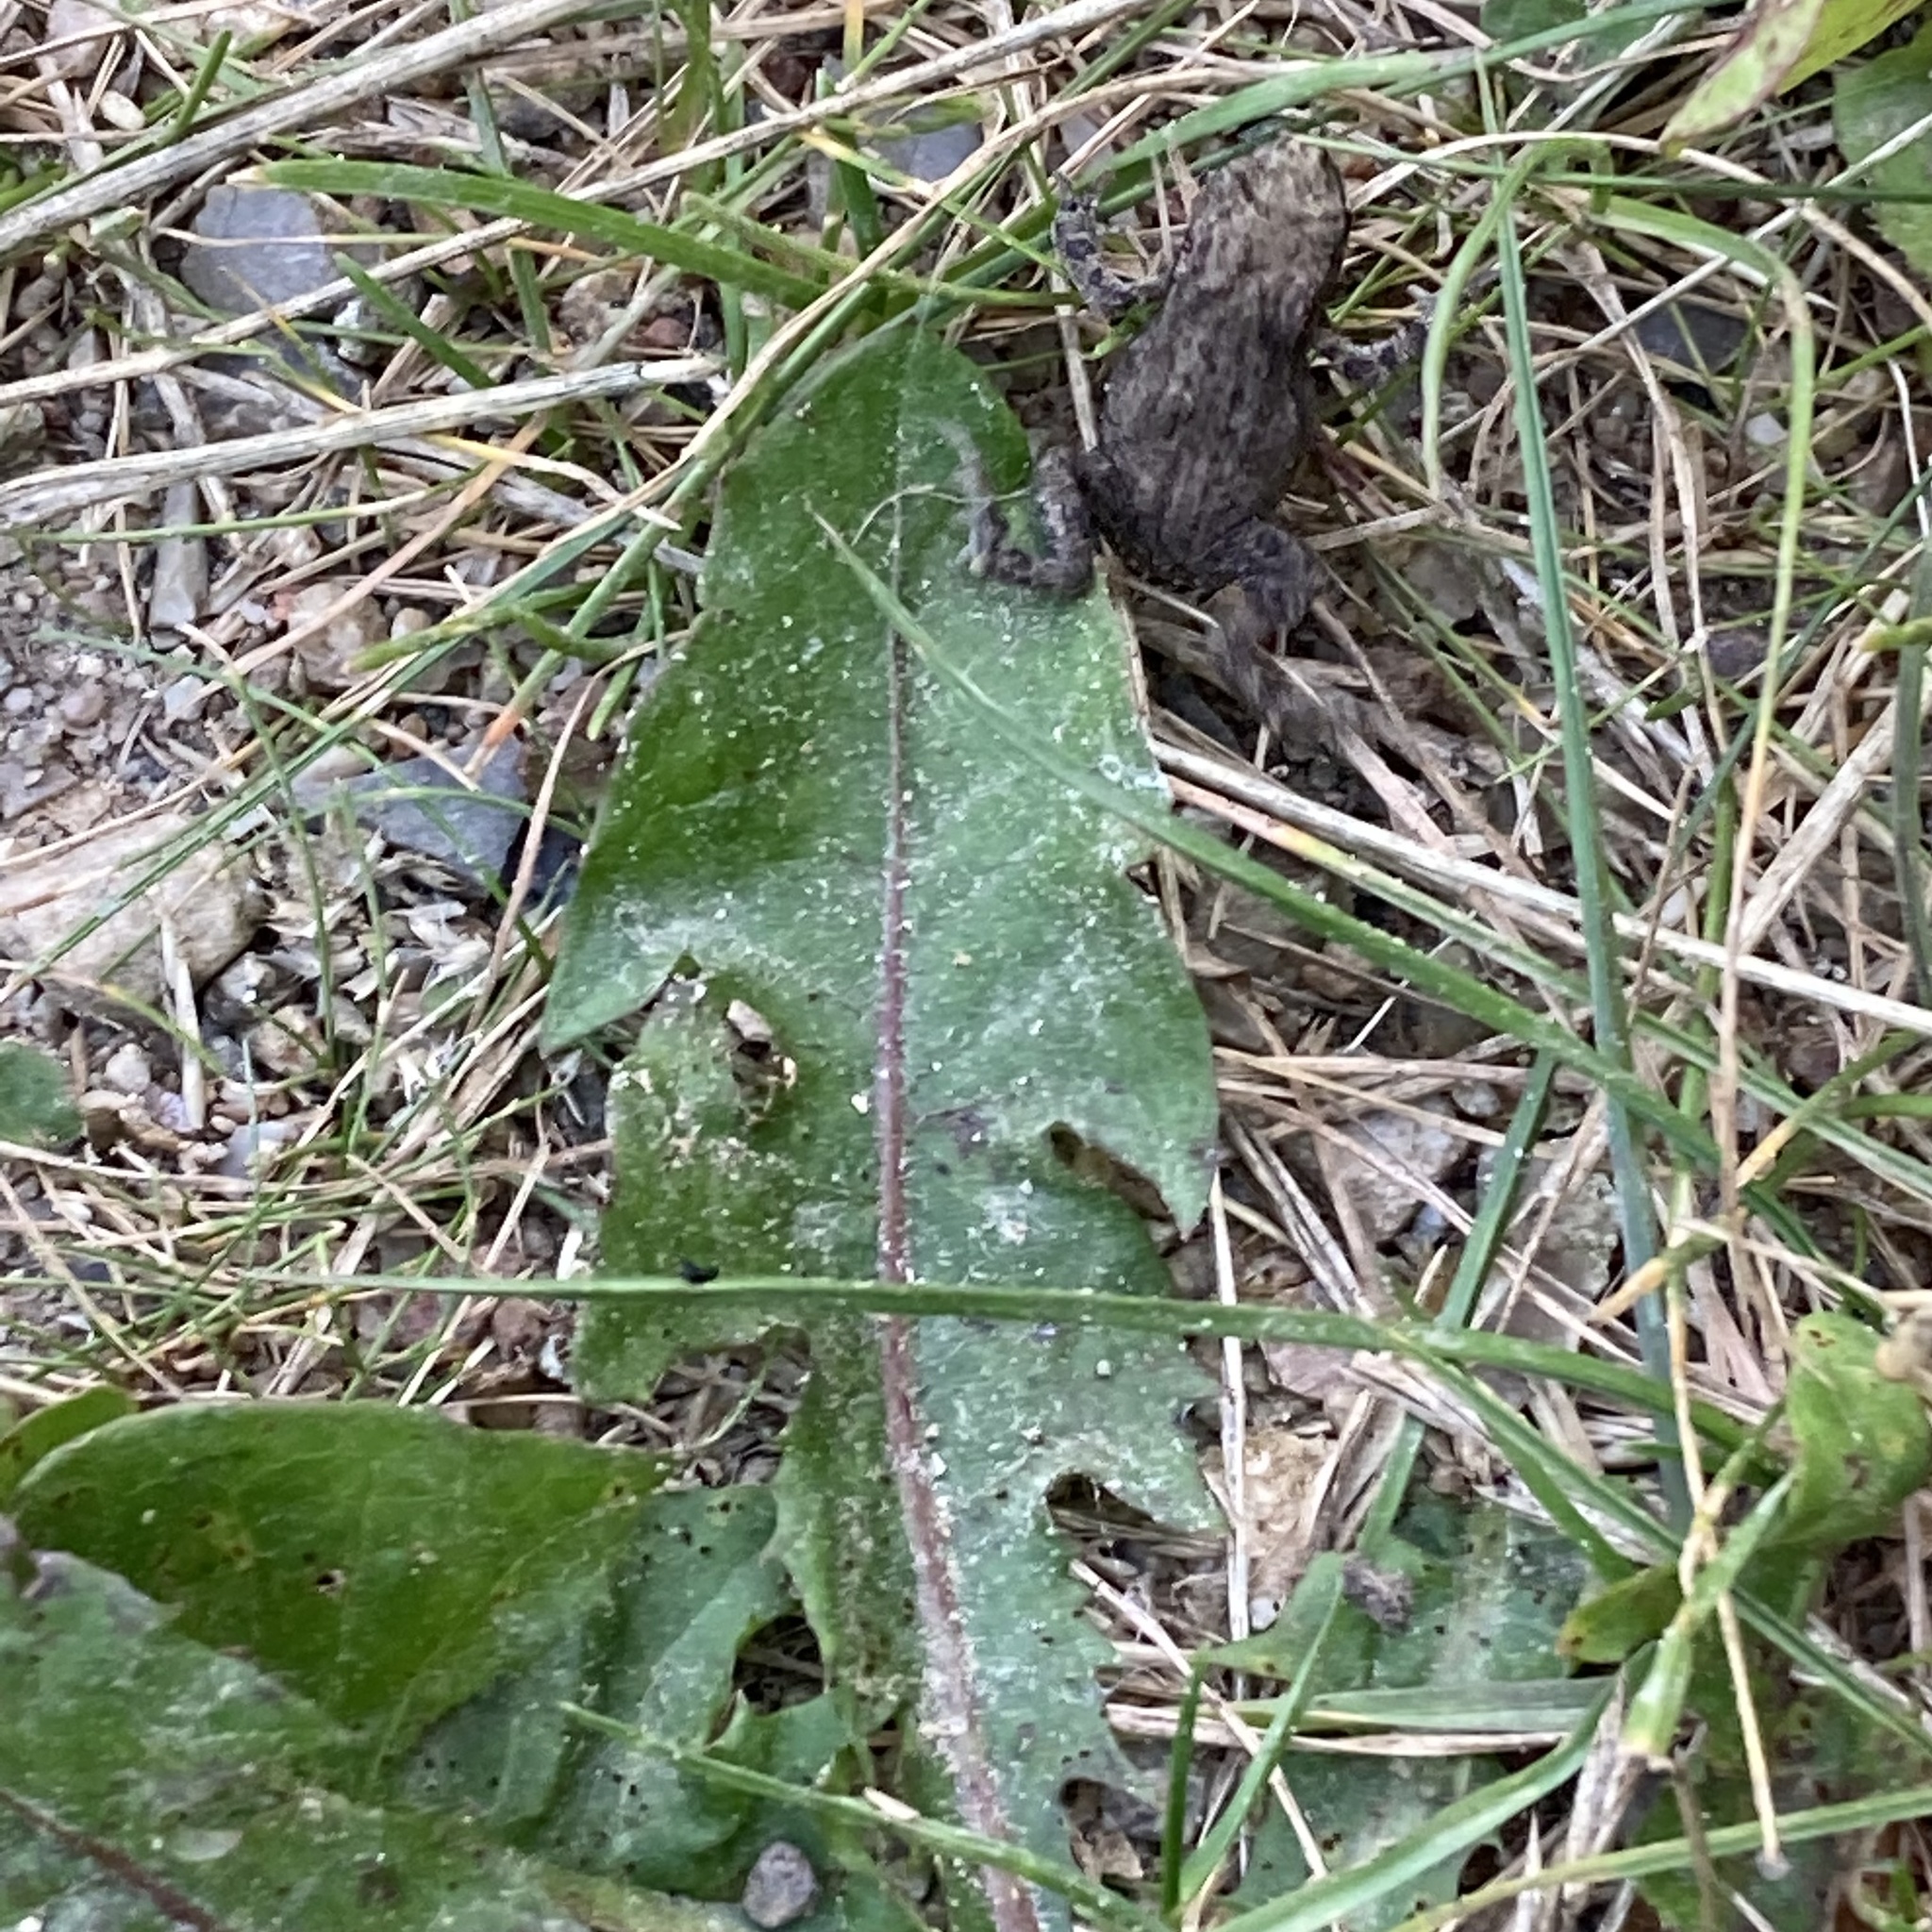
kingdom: Animalia
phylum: Chordata
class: Amphibia
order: Anura
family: Bufonidae
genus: Bufo
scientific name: Bufo bufo
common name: Common toad
